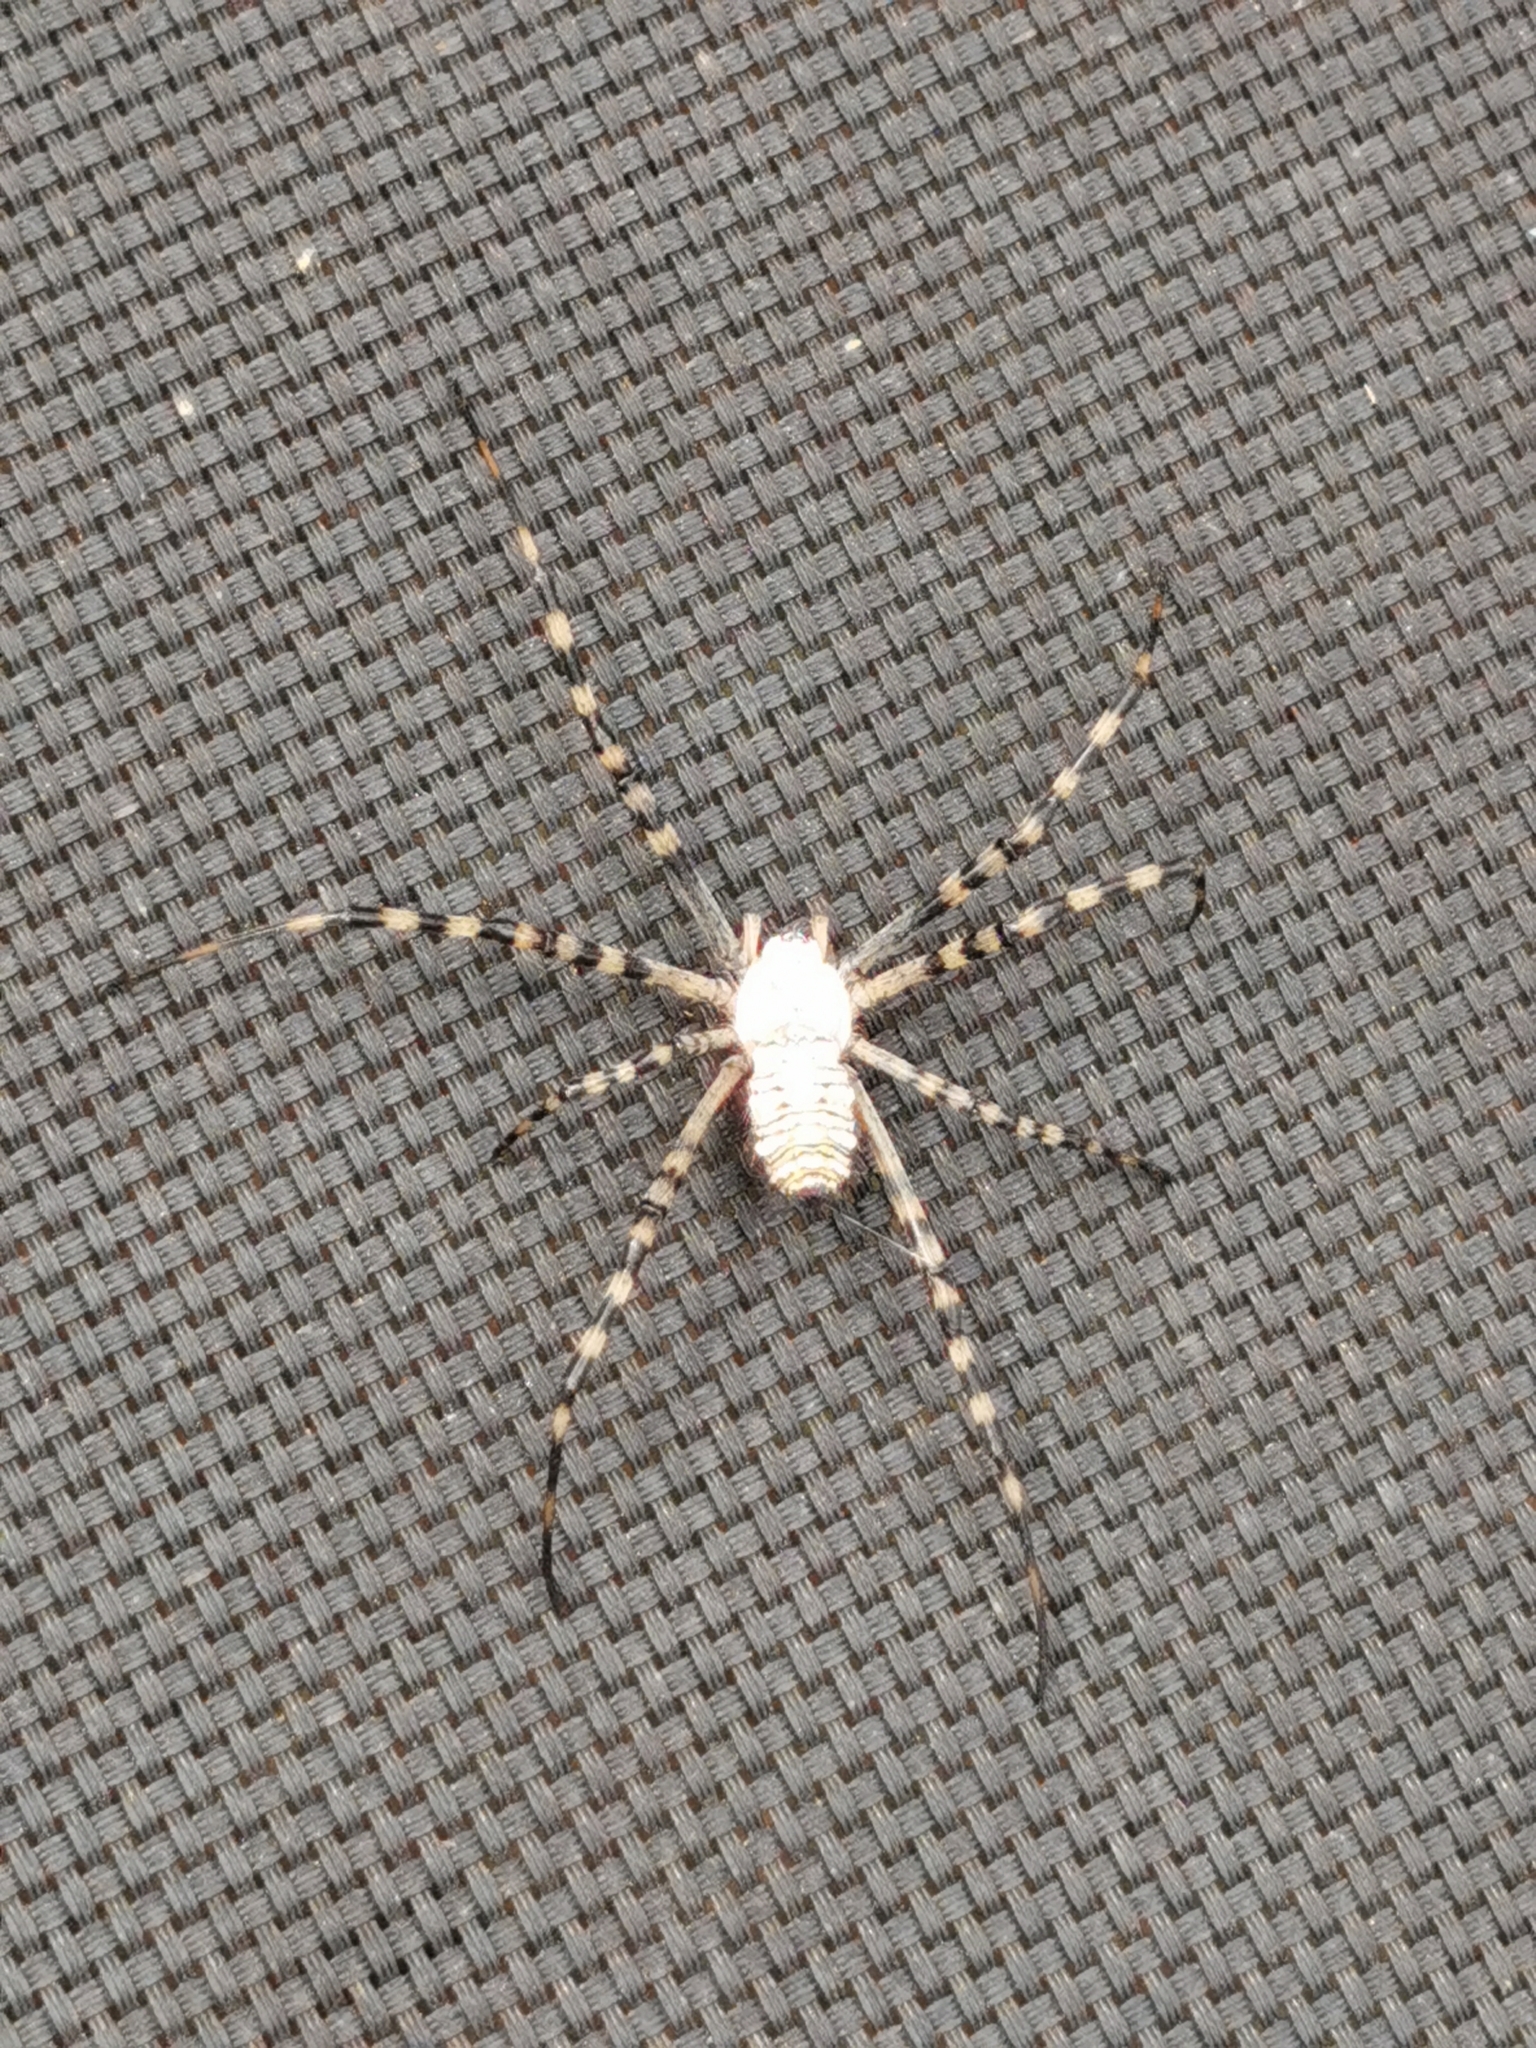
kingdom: Animalia
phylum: Arthropoda
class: Arachnida
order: Araneae
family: Araneidae
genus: Argiope
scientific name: Argiope trifasciata
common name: Banded garden spider
